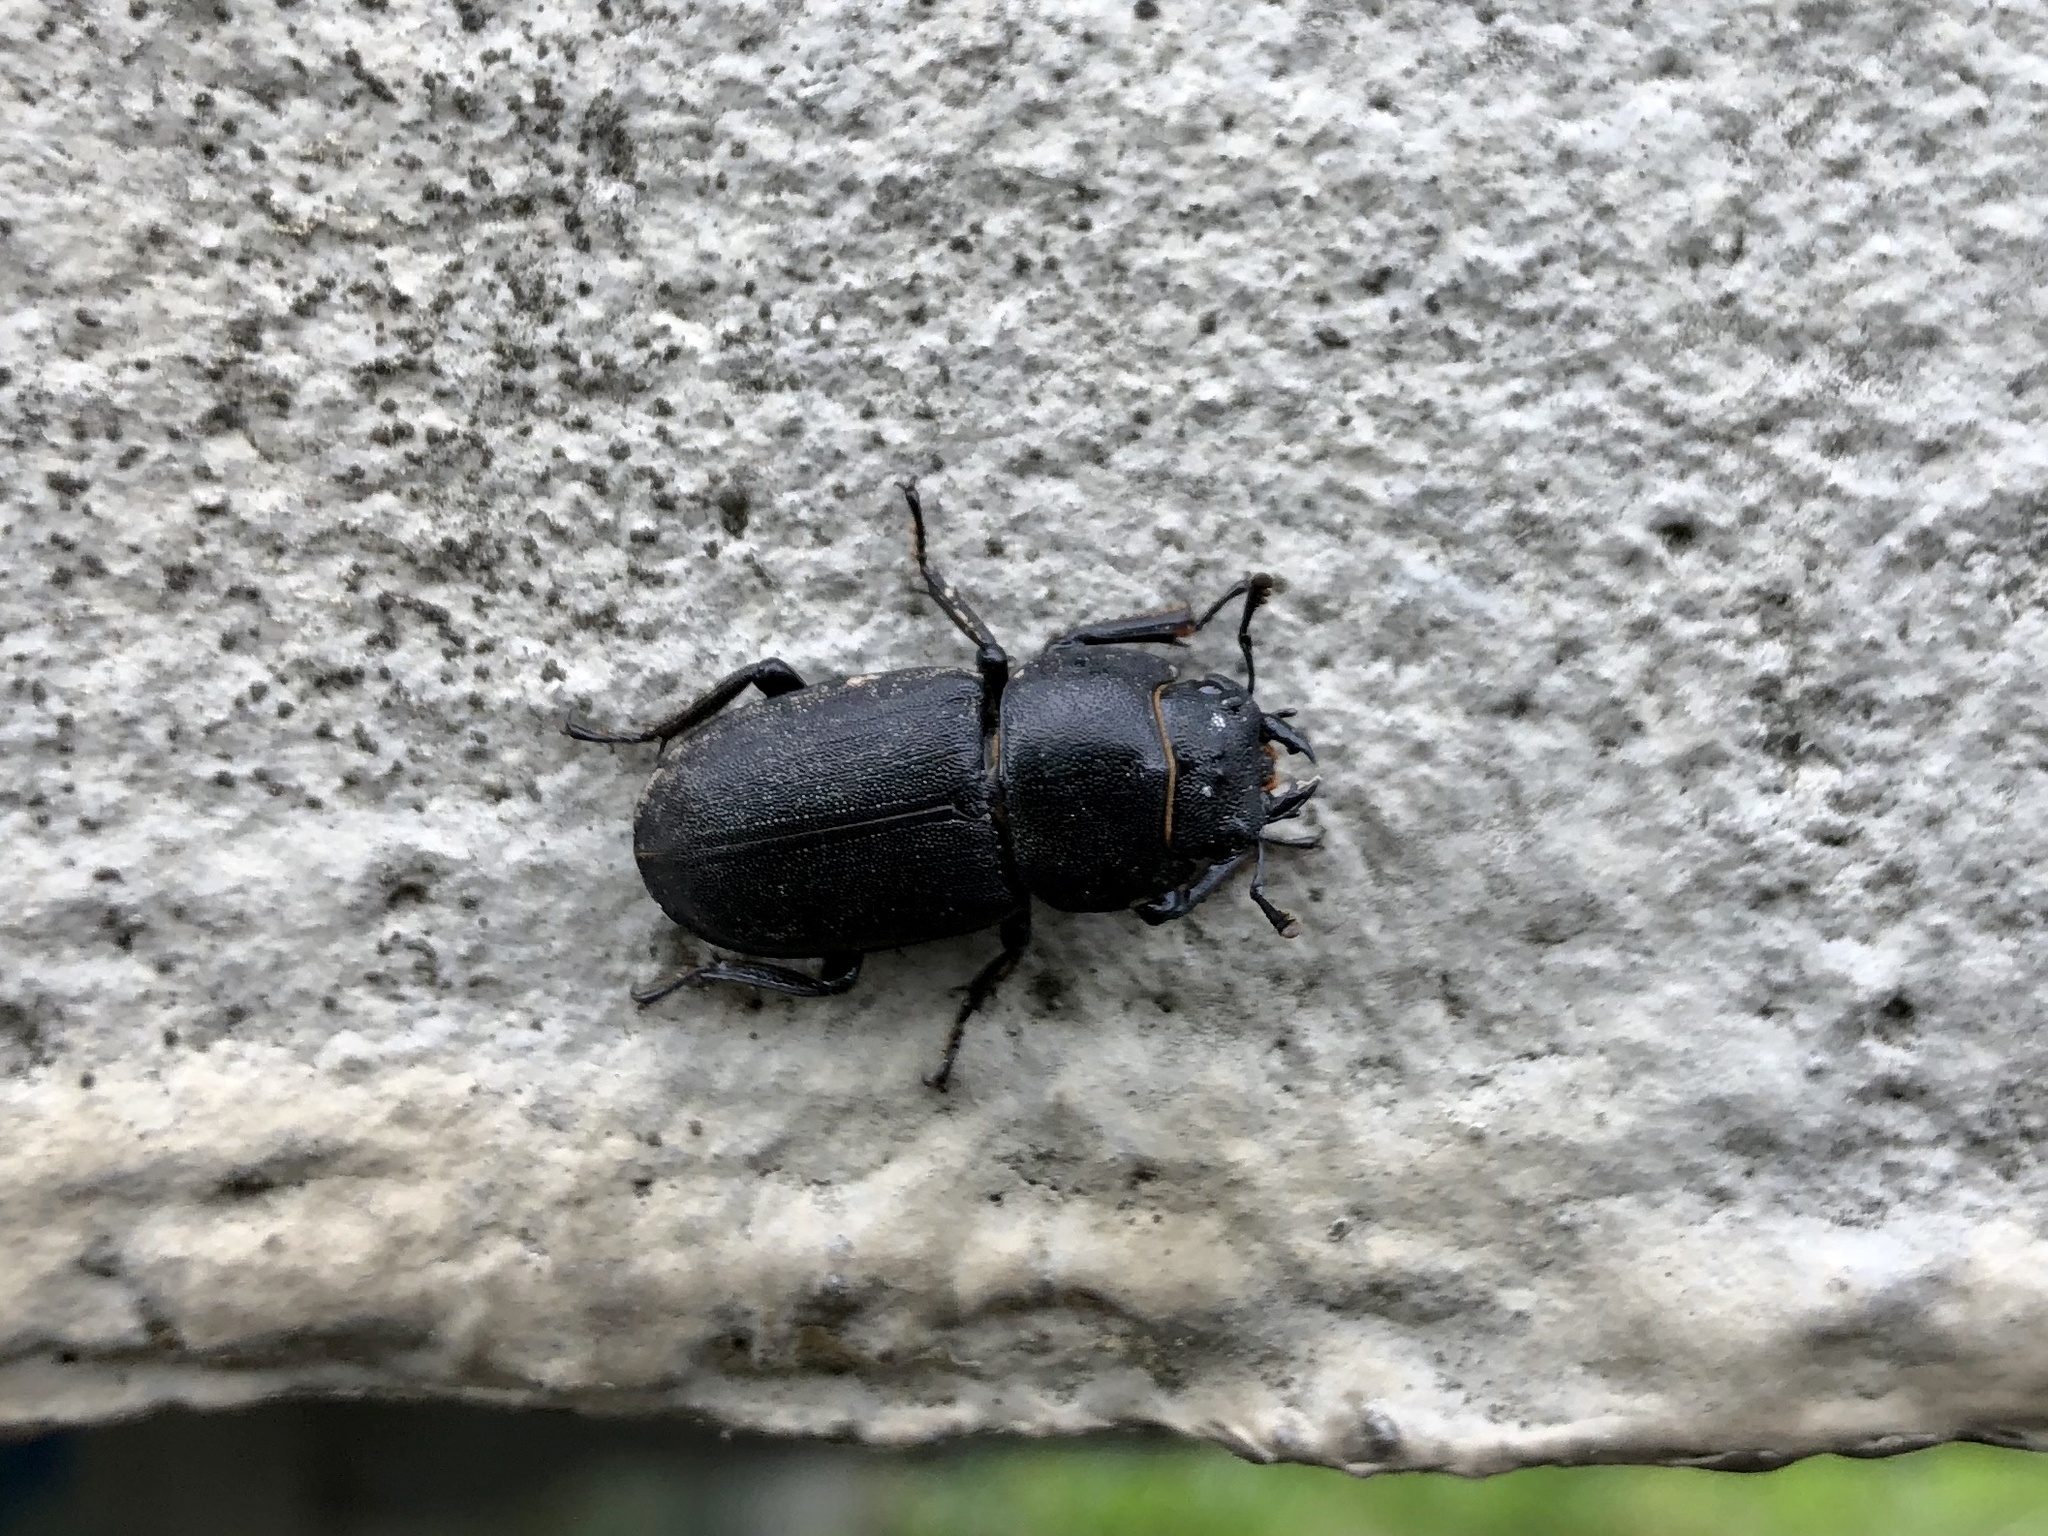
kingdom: Animalia
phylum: Arthropoda
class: Insecta
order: Coleoptera
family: Lucanidae
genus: Dorcus
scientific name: Dorcus parallelipipedus
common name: Lesser stag beetle
